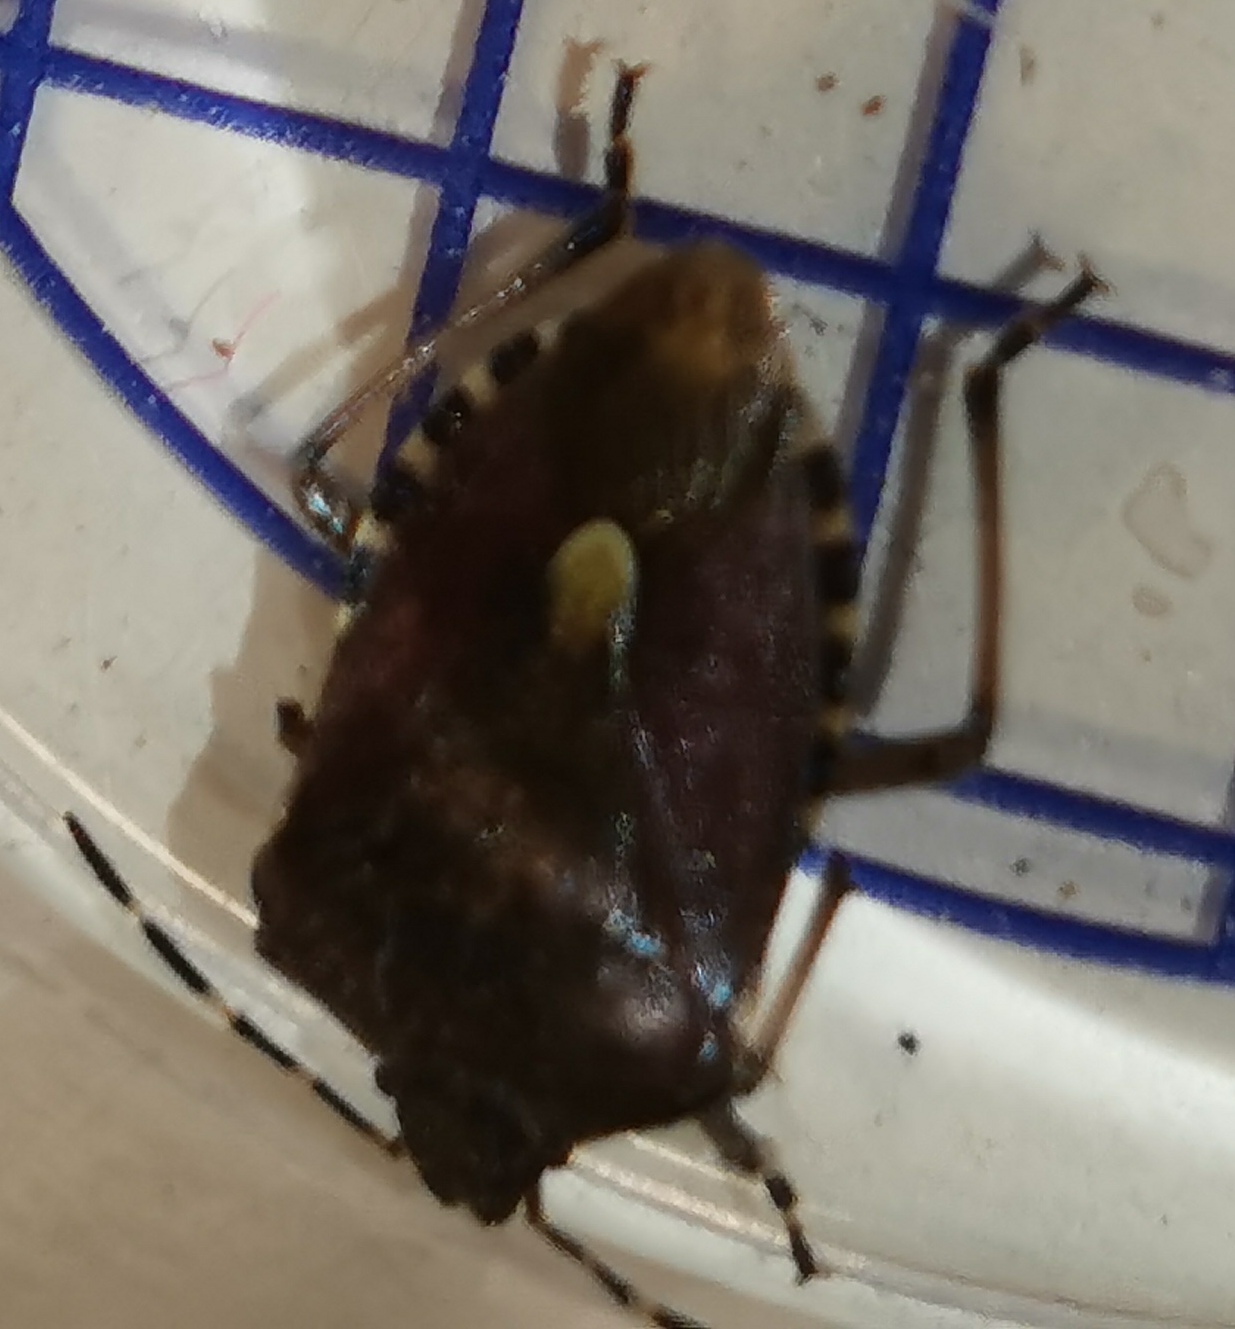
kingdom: Animalia
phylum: Arthropoda
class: Insecta
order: Hemiptera
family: Pentatomidae
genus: Dolycoris
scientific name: Dolycoris baccarum
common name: Sloe bug
